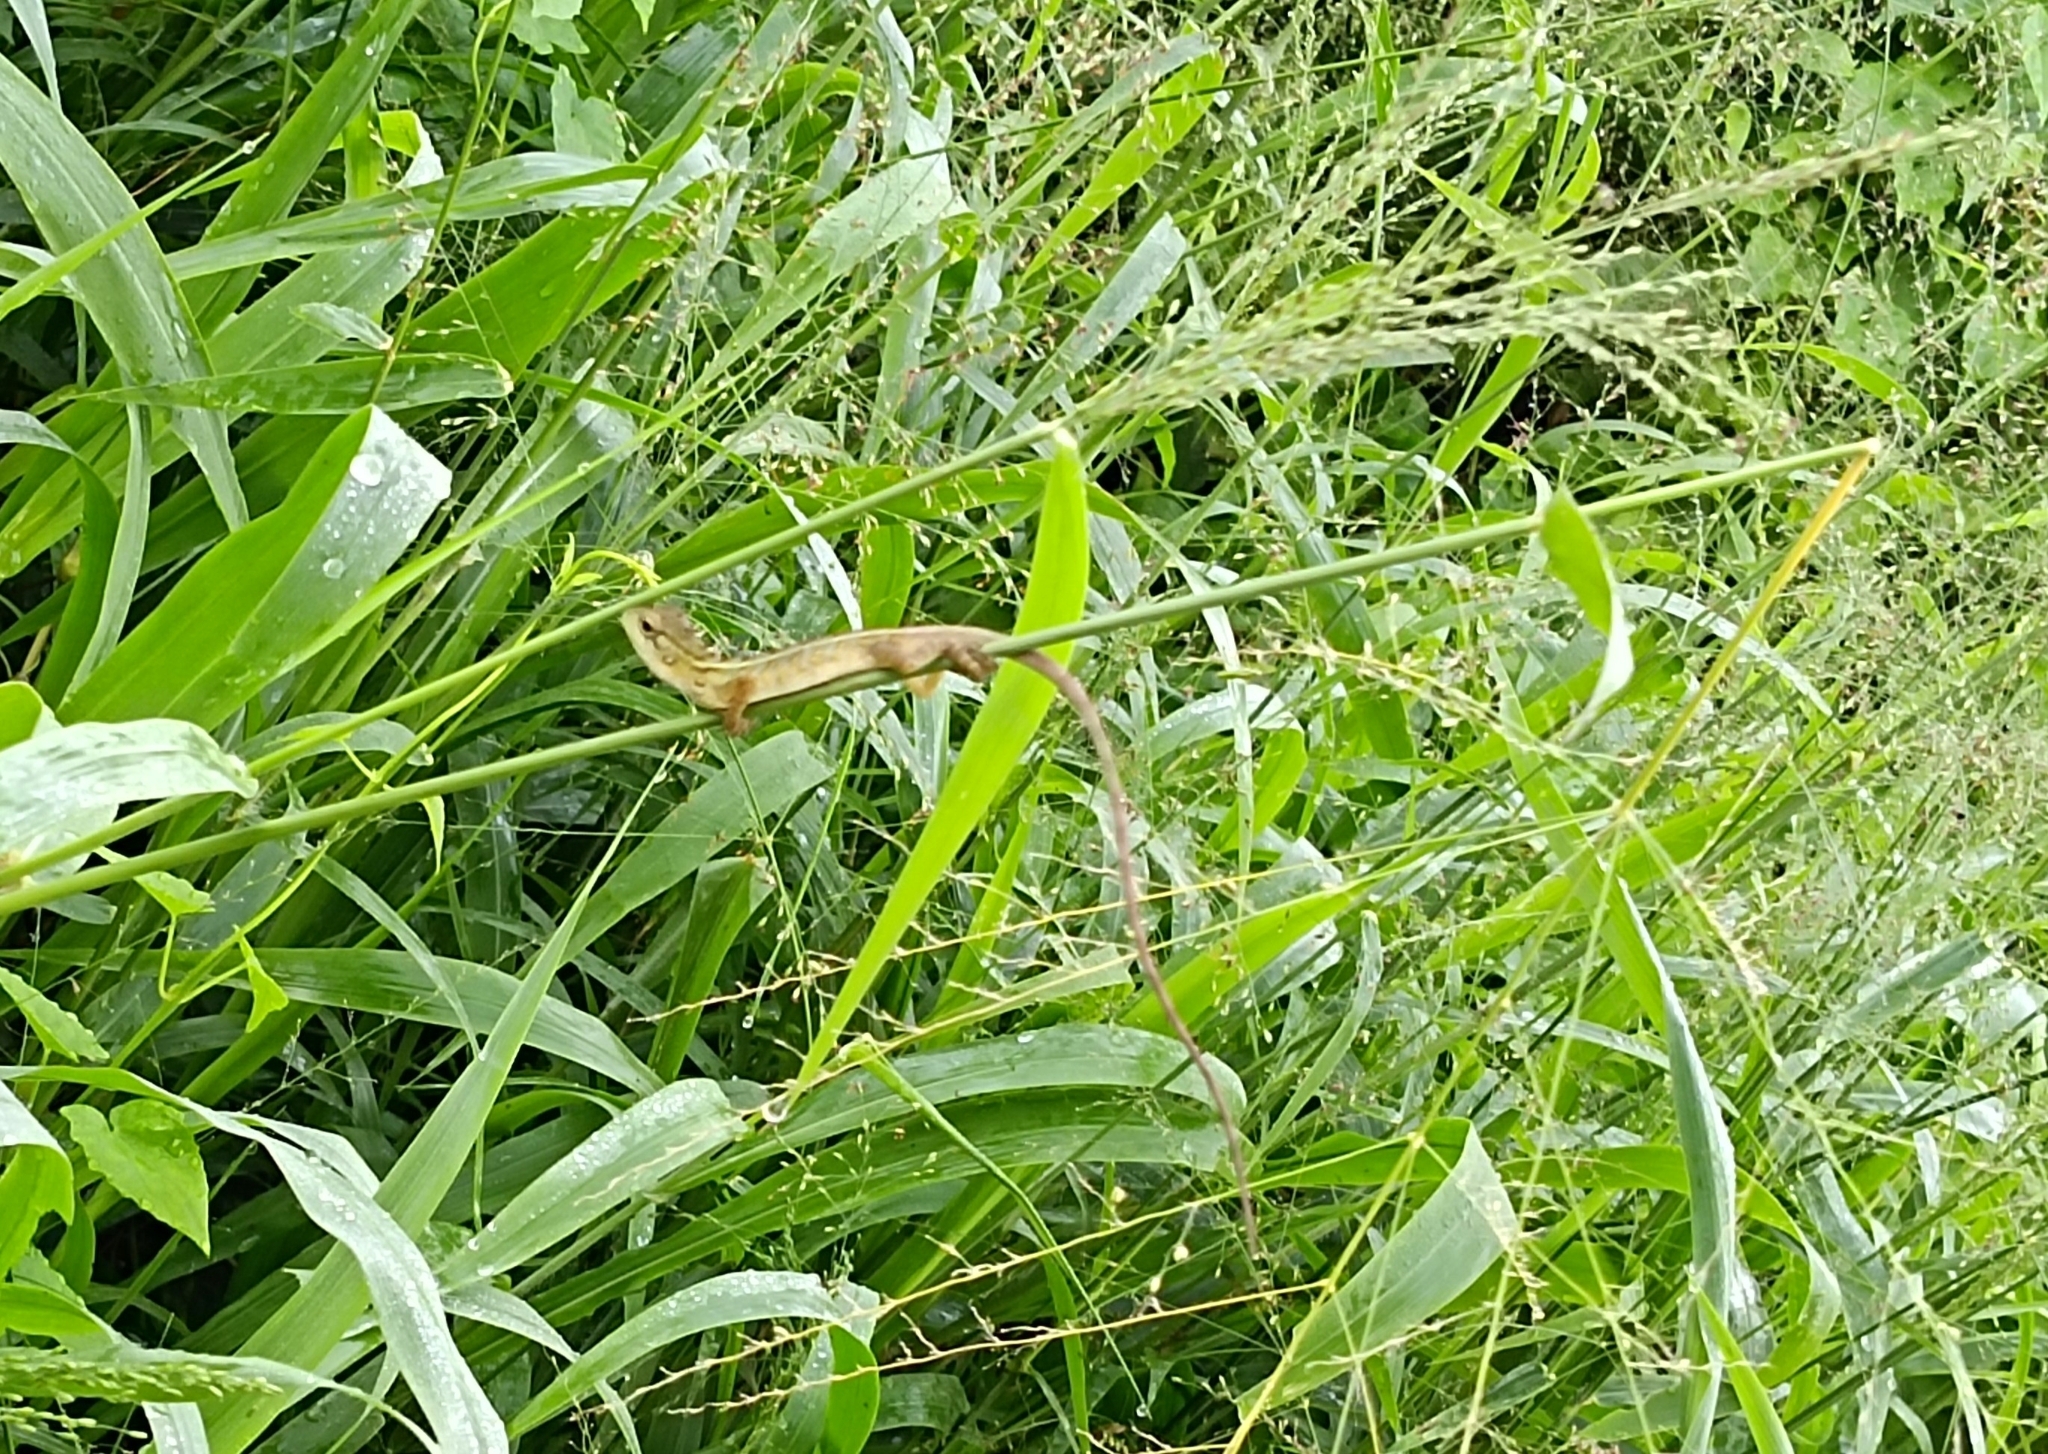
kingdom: Animalia
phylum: Chordata
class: Squamata
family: Agamidae
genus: Calotes
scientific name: Calotes versicolor
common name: Oriental garden lizard
